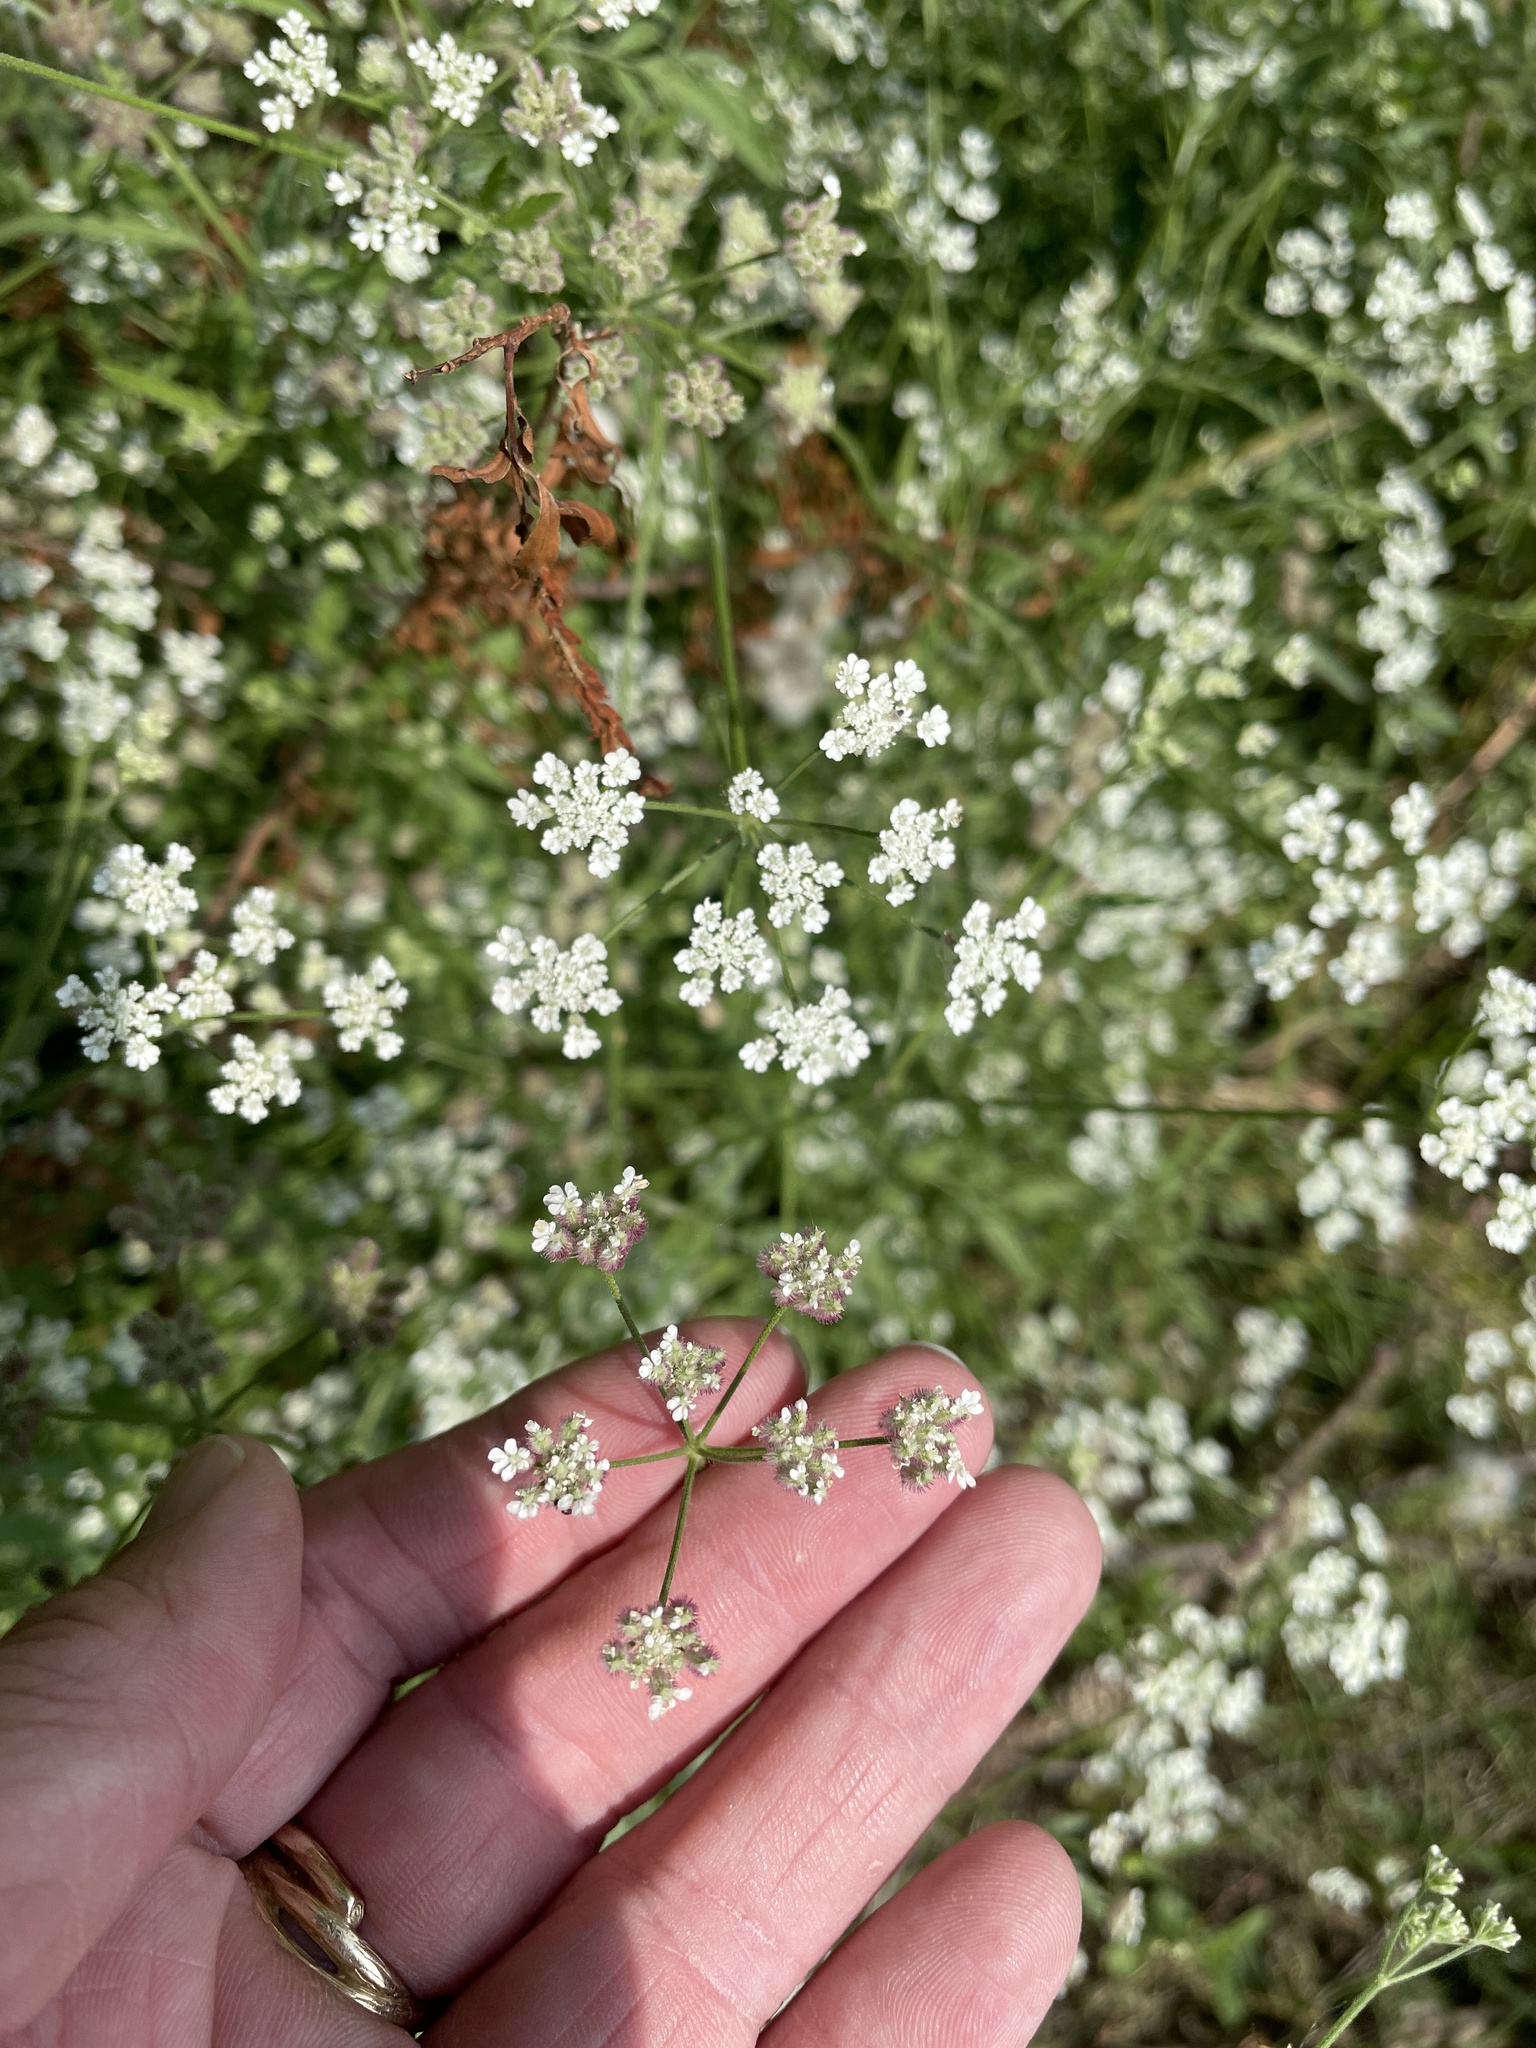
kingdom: Plantae
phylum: Tracheophyta
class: Magnoliopsida
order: Apiales
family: Apiaceae
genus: Torilis
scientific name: Torilis arvensis
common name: Spreading hedge-parsley
